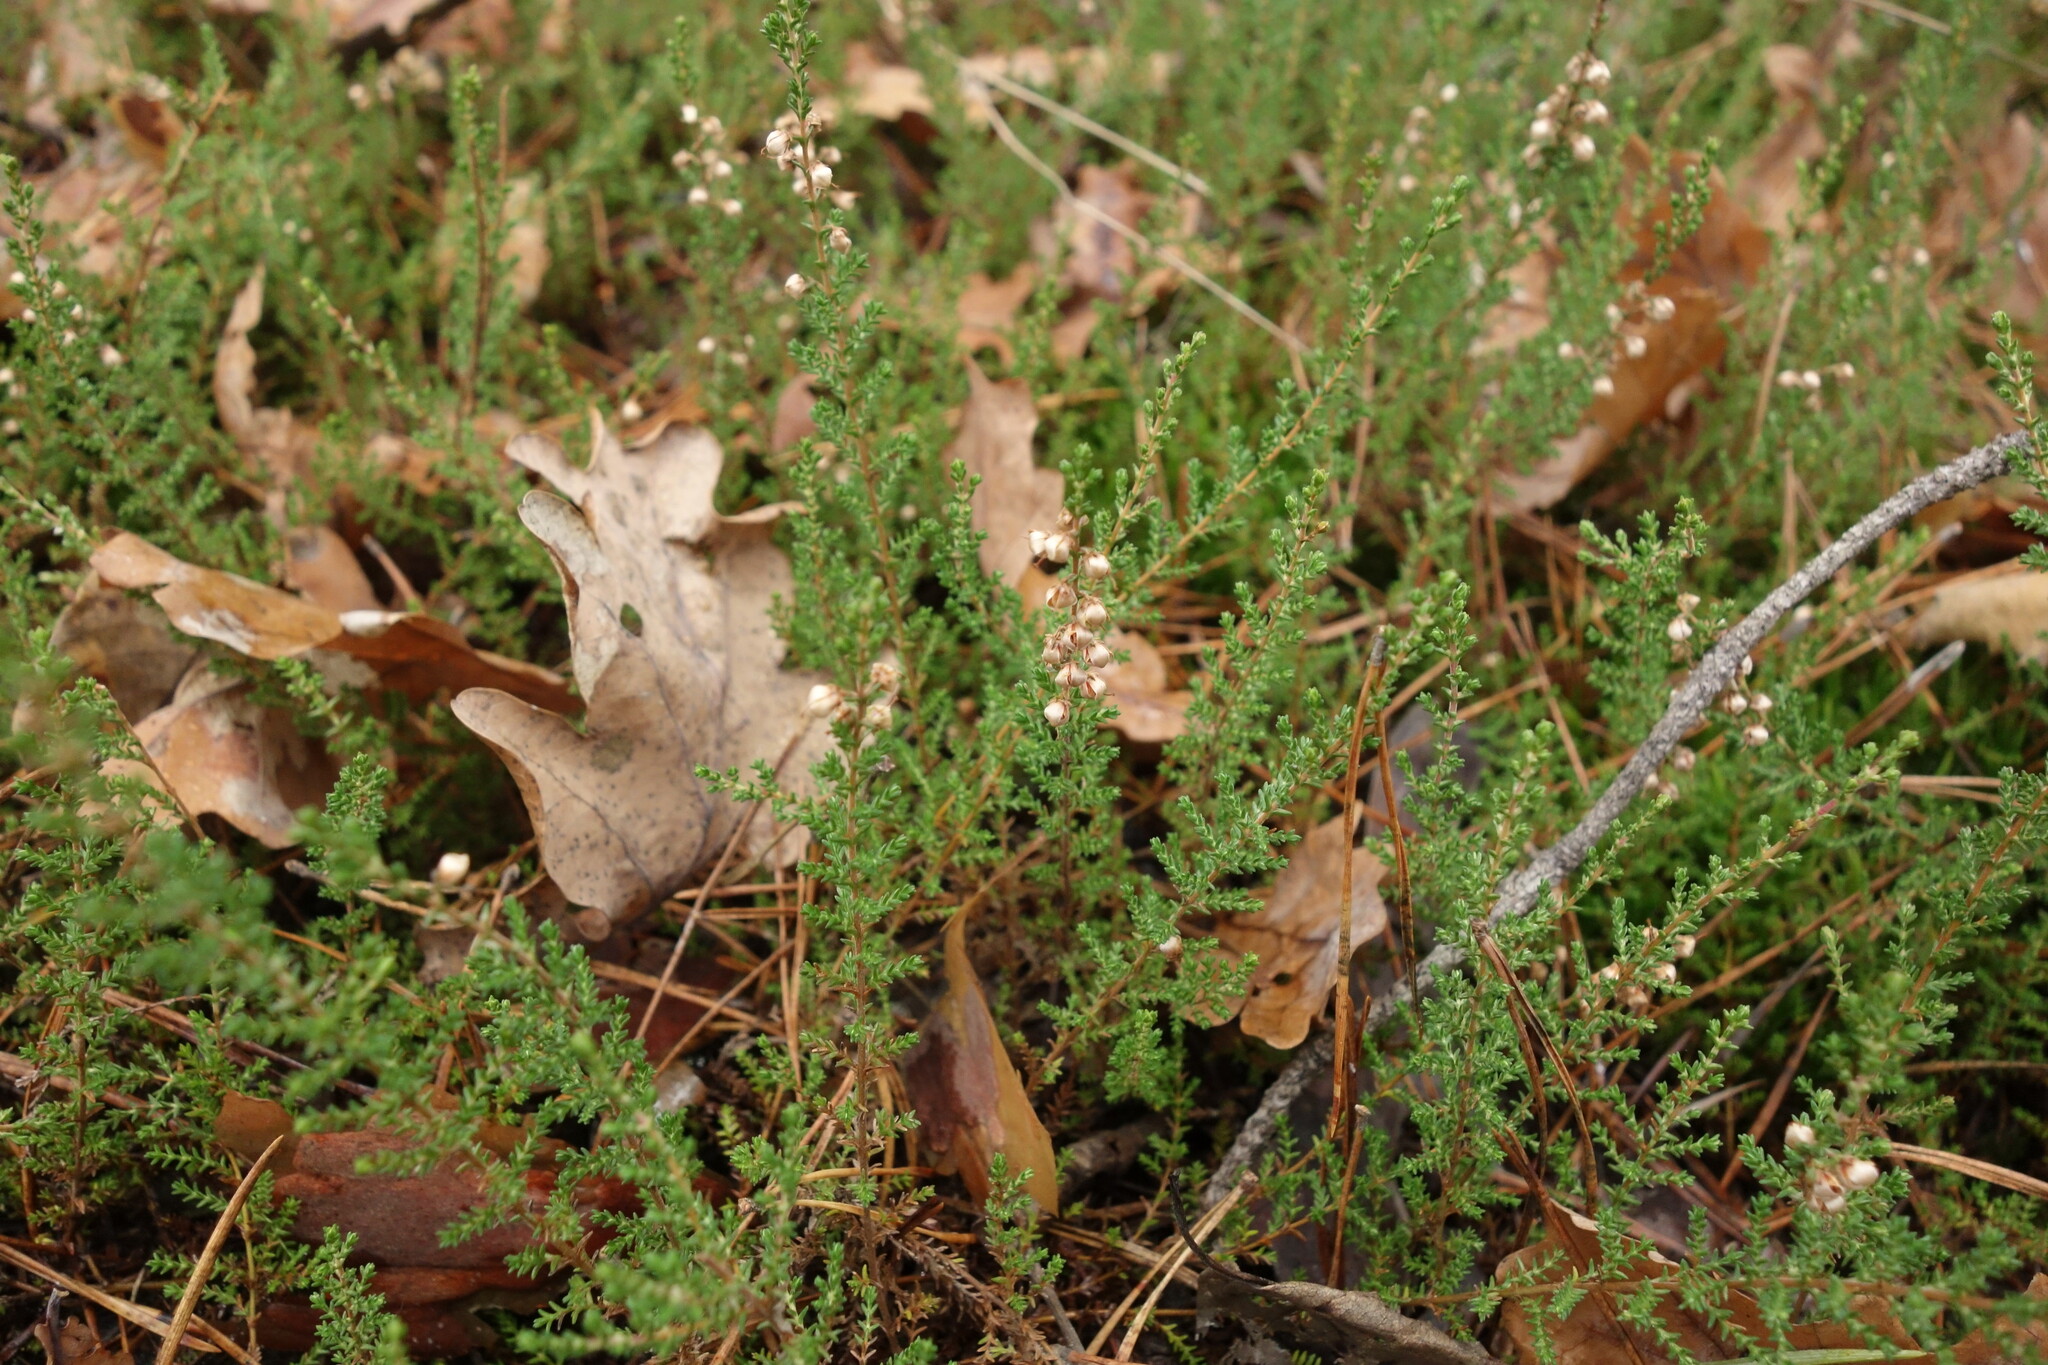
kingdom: Plantae
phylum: Tracheophyta
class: Magnoliopsida
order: Ericales
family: Ericaceae
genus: Calluna
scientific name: Calluna vulgaris
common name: Heather
